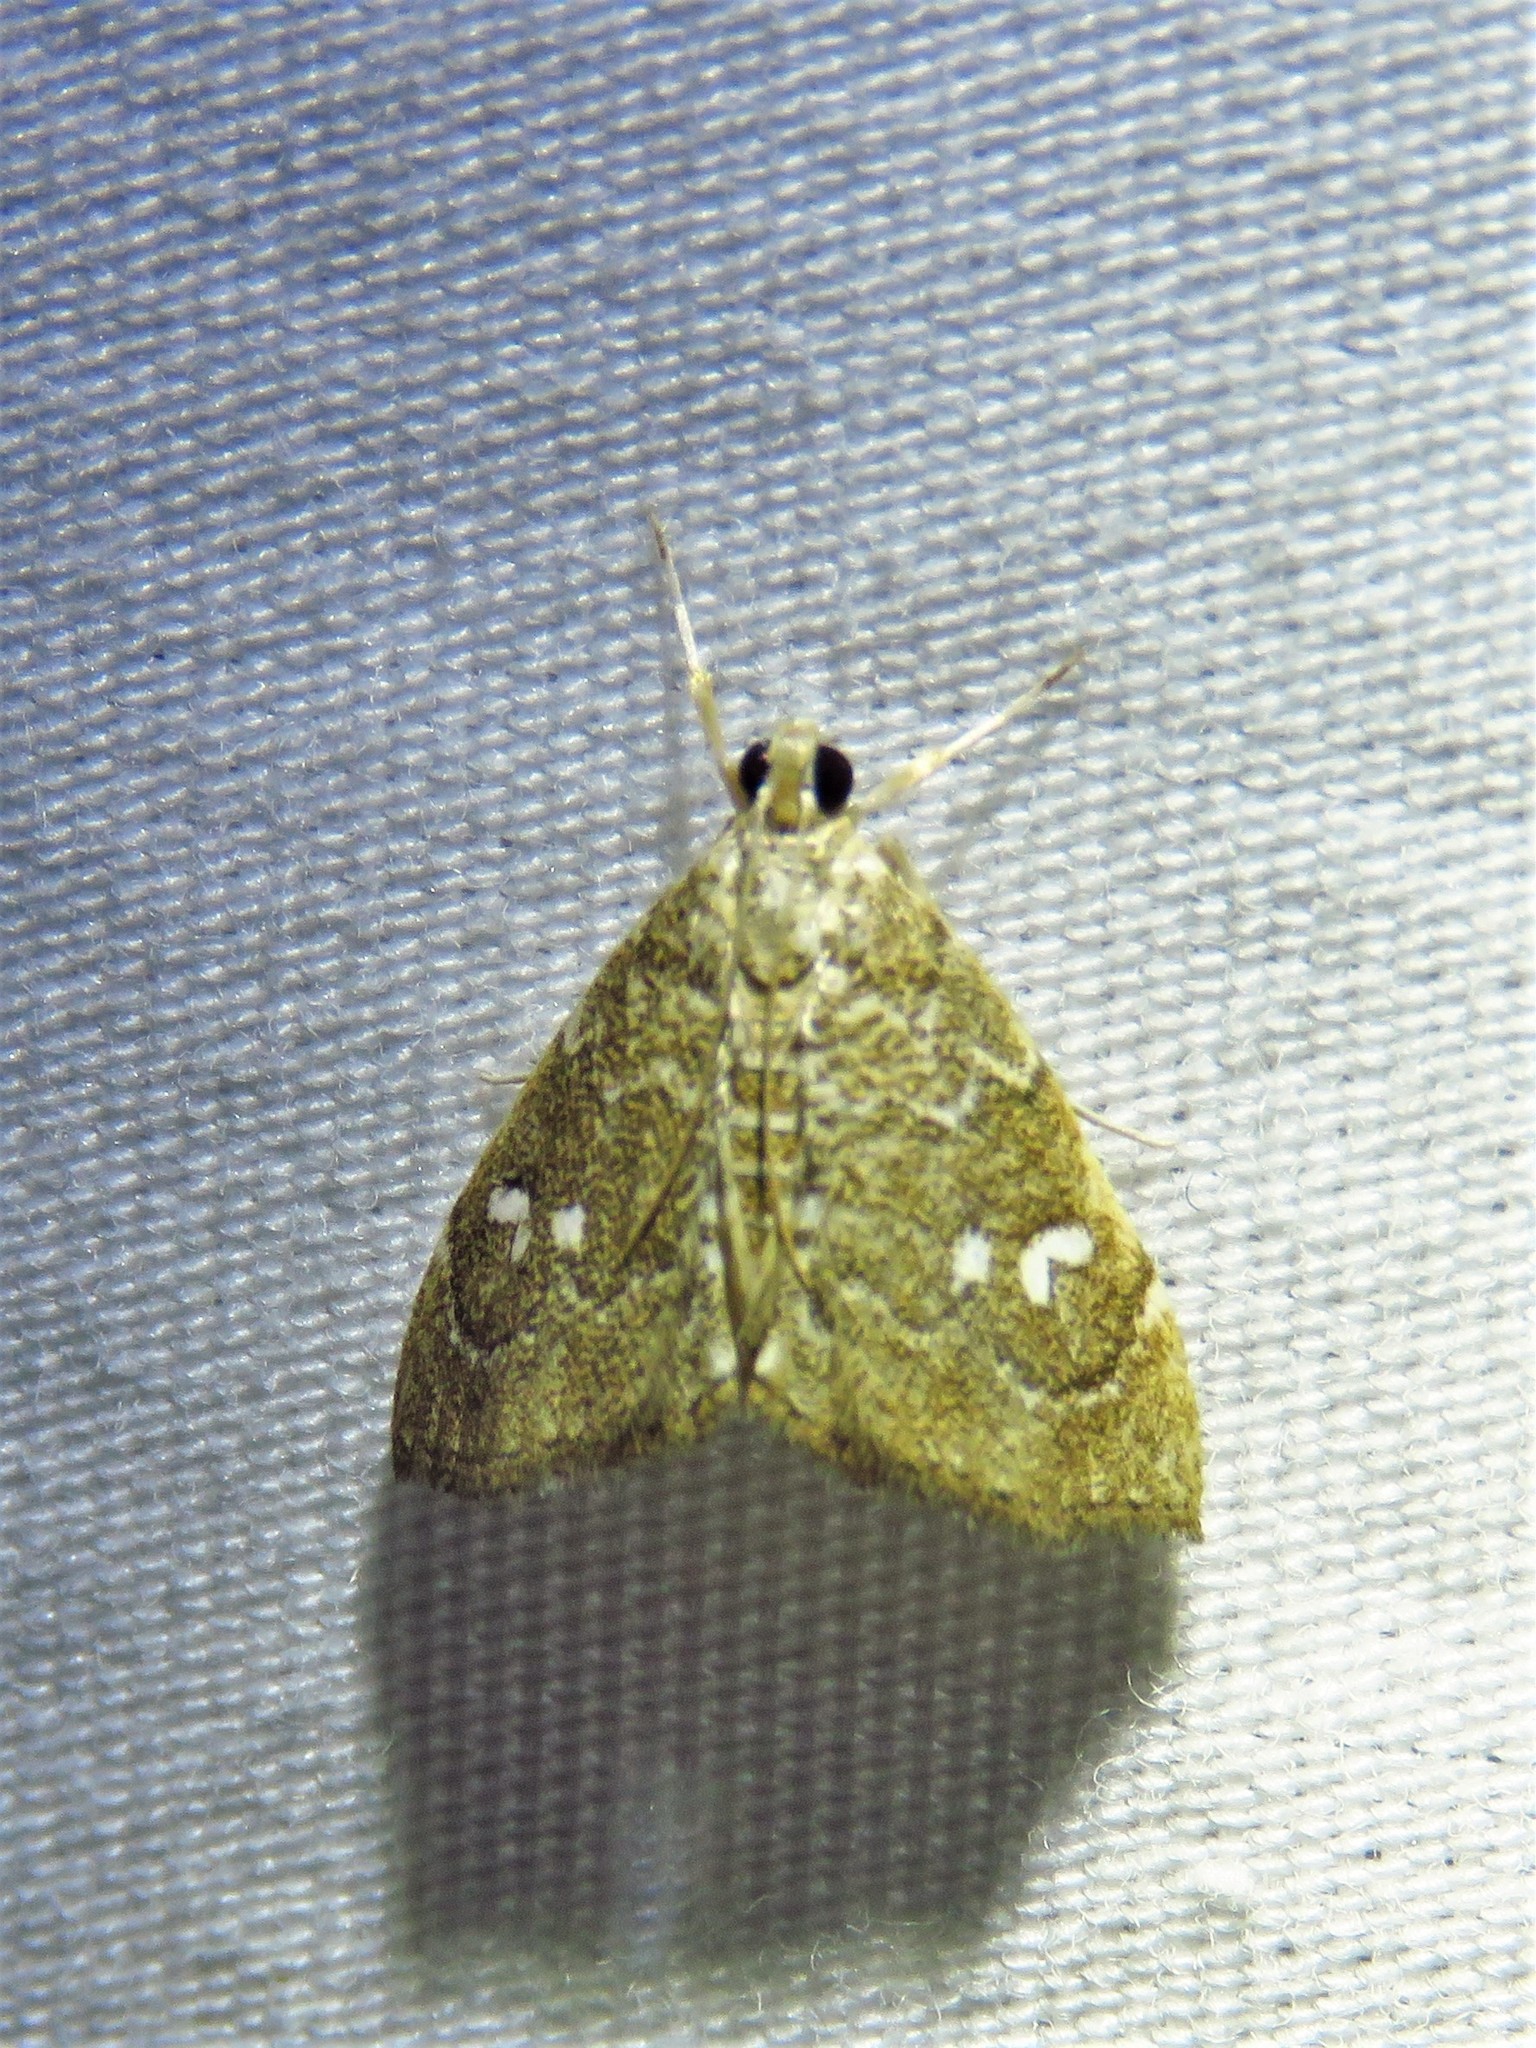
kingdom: Animalia
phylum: Arthropoda
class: Insecta
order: Lepidoptera
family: Crambidae
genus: Nephrogramma
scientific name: Nephrogramma reniculalis
